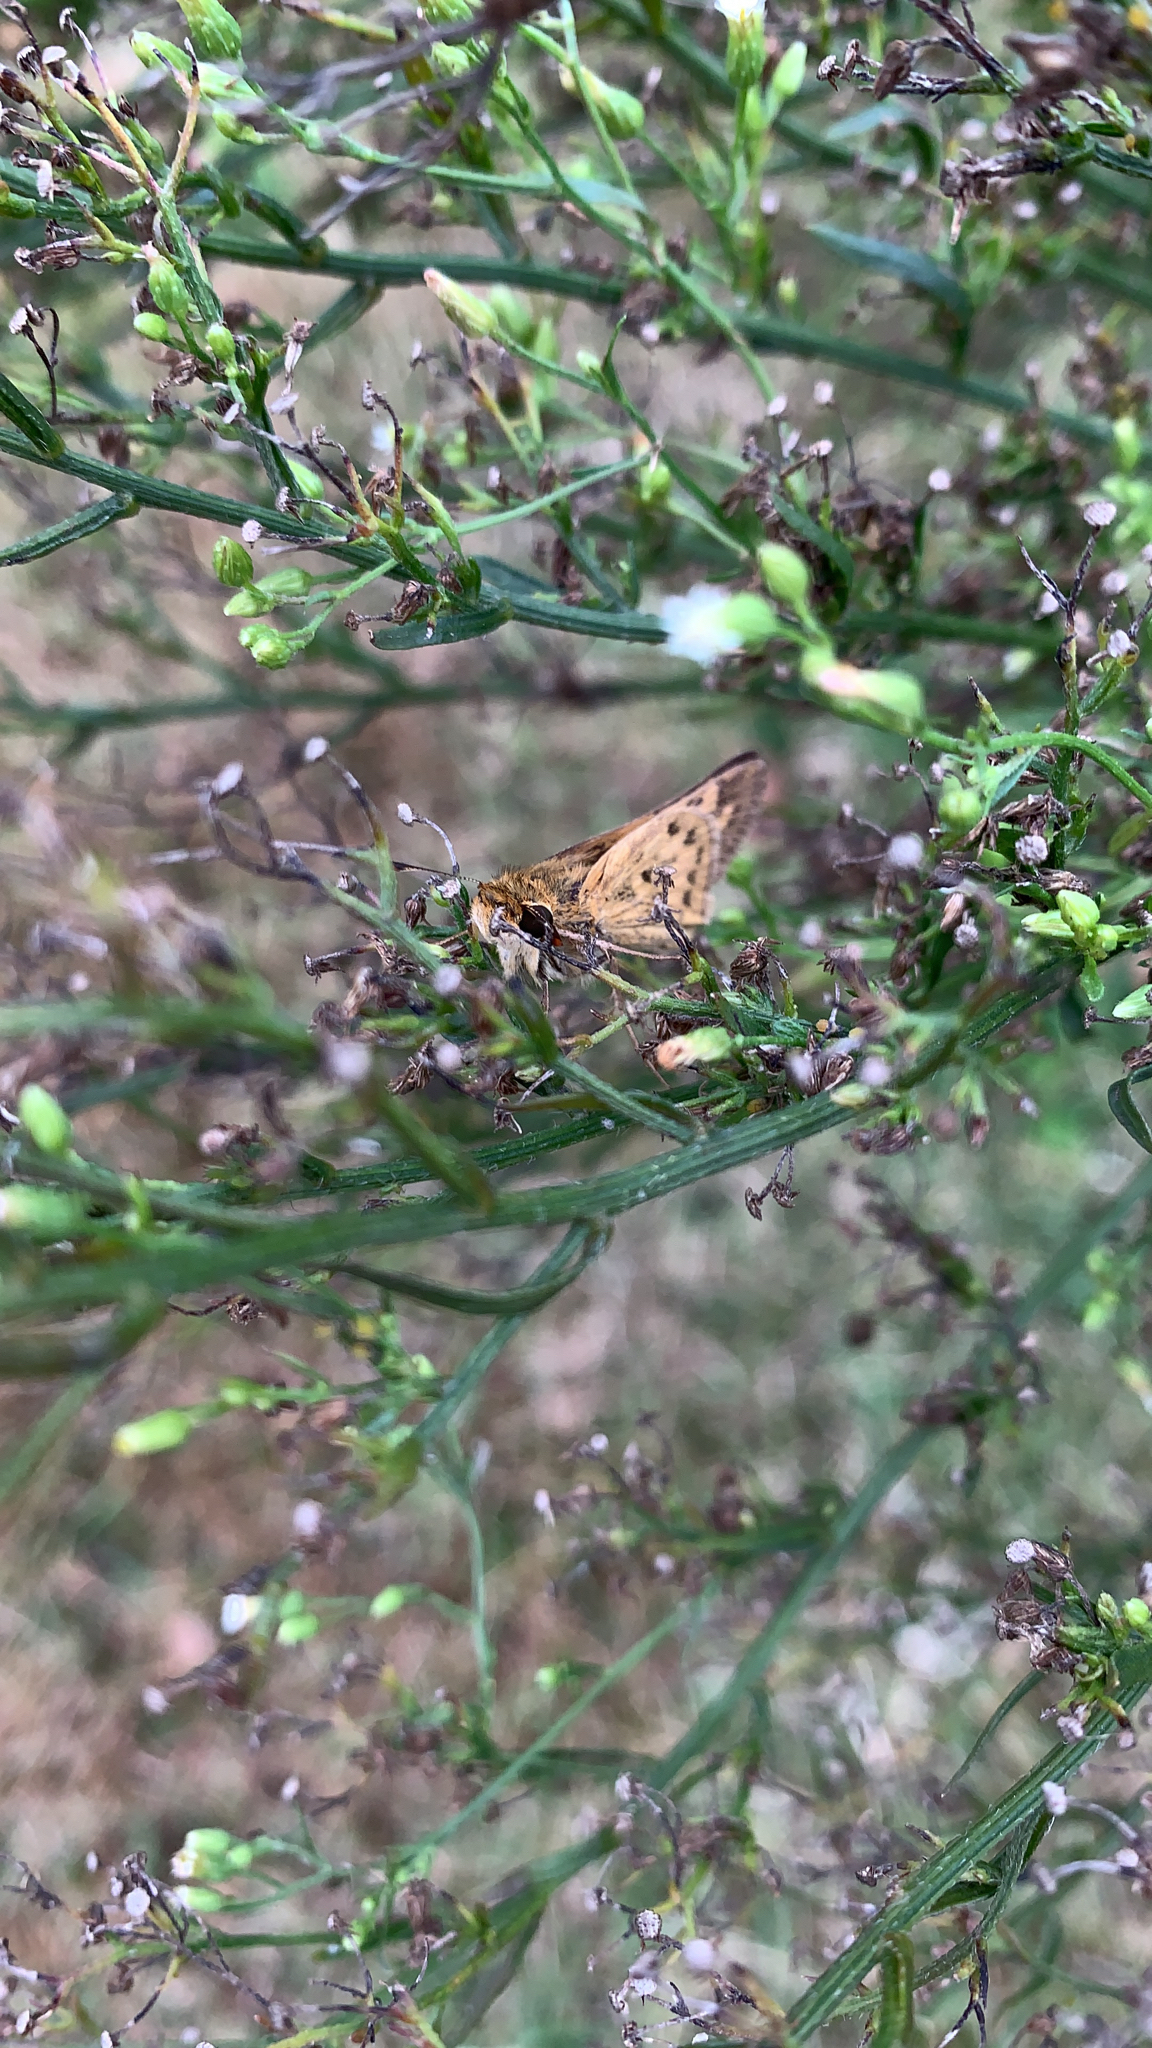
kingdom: Animalia
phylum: Arthropoda
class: Insecta
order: Lepidoptera
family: Hesperiidae
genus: Hylephila
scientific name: Hylephila phyleus
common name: Fiery skipper
